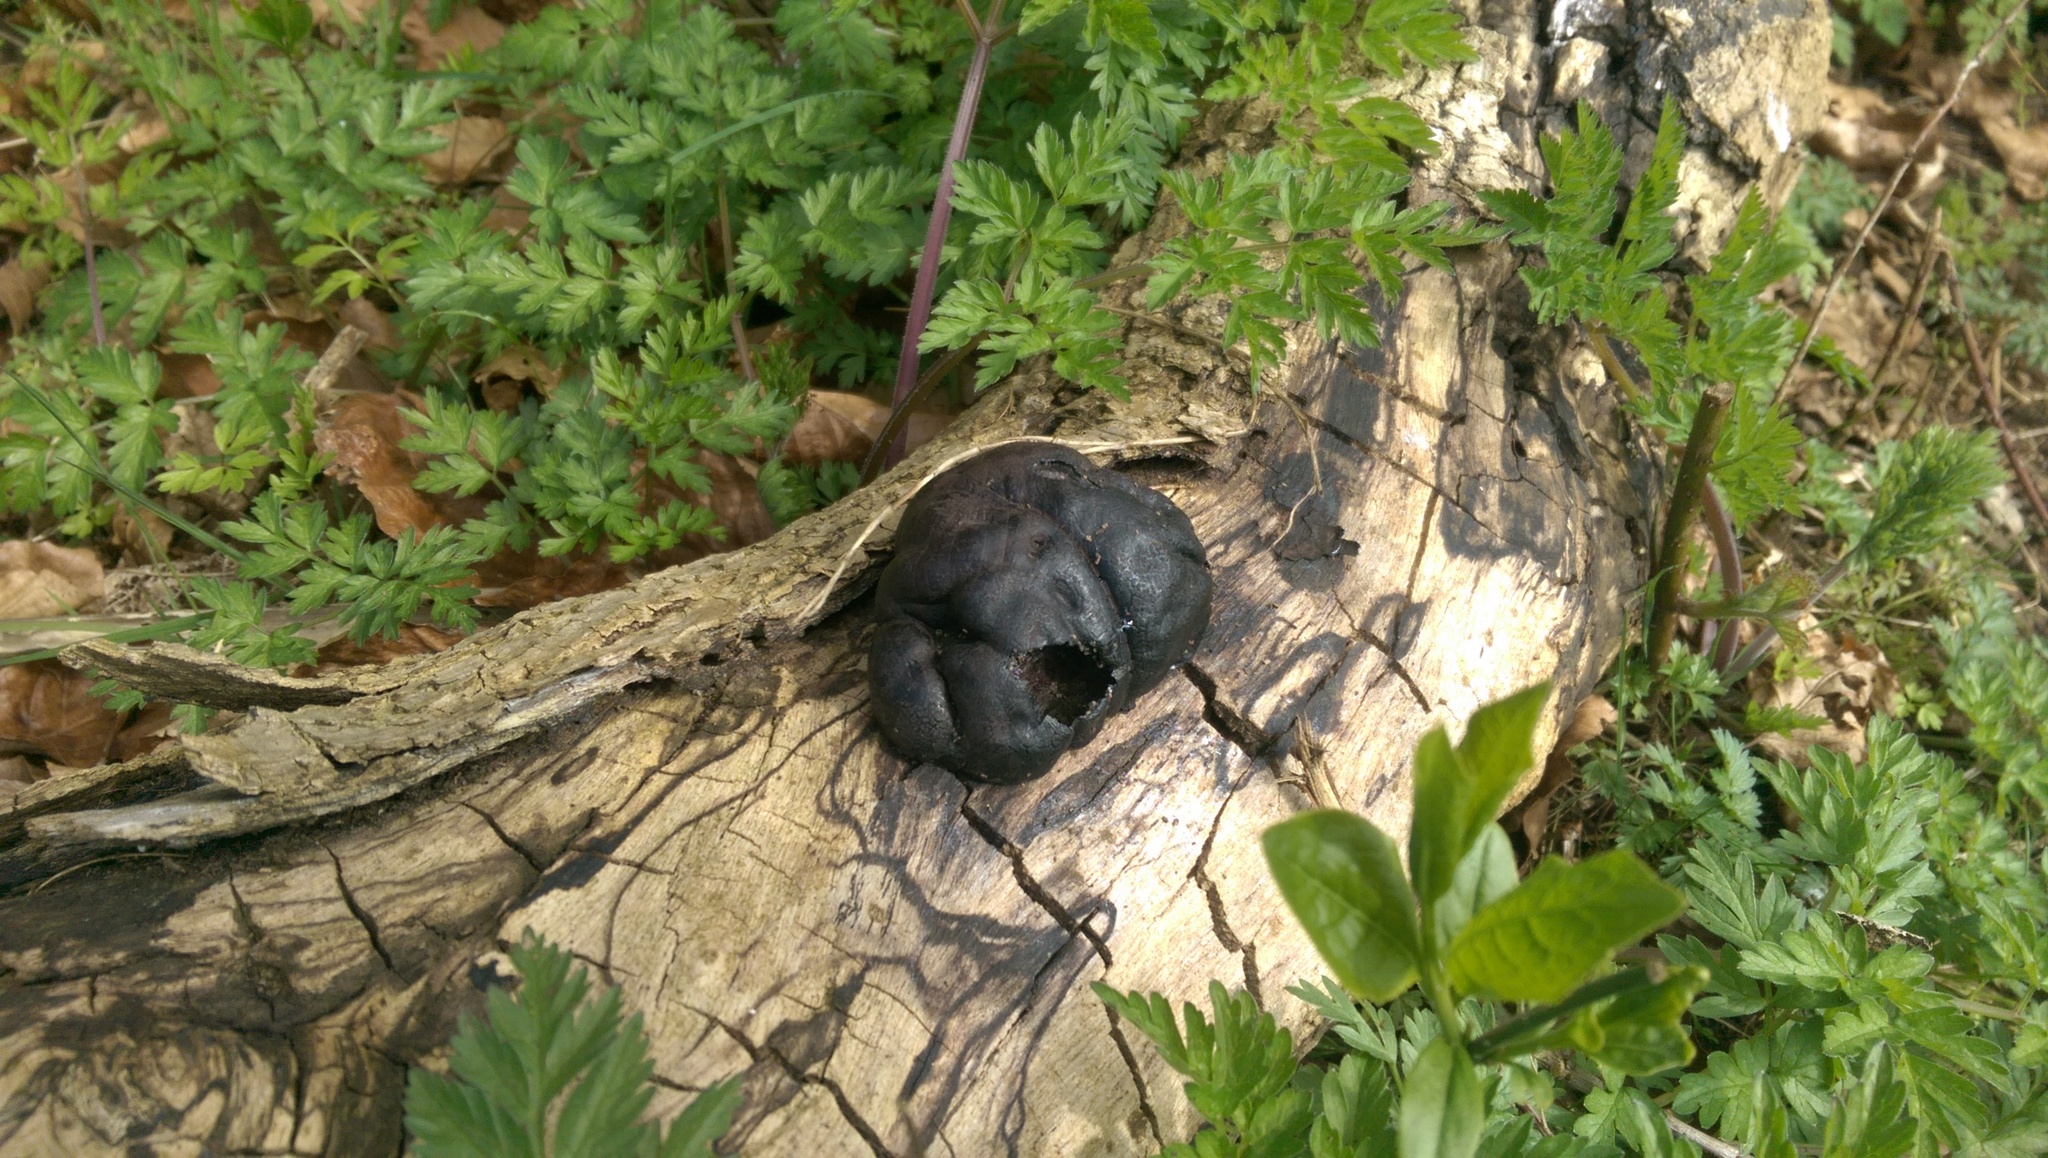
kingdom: Fungi
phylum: Ascomycota
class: Sordariomycetes
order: Xylariales
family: Hypoxylaceae
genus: Daldinia
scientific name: Daldinia concentrica
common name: Cramp balls
